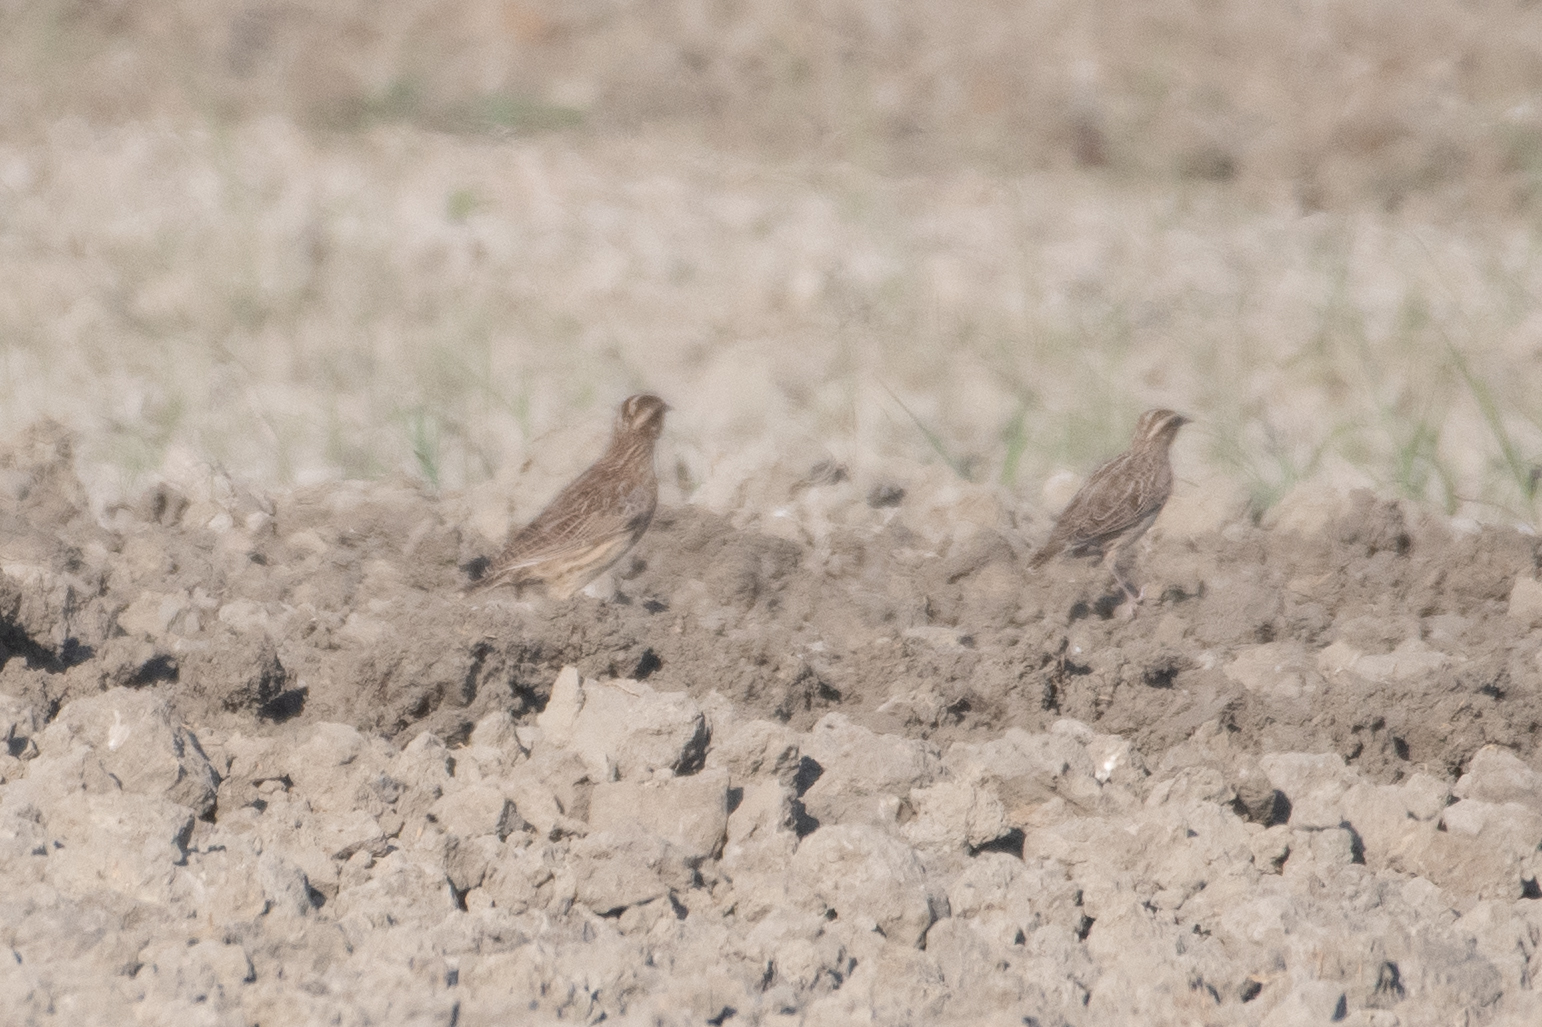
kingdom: Animalia
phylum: Chordata
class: Aves
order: Passeriformes
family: Icteridae
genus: Sturnella
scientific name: Sturnella neglecta
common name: Western meadowlark
